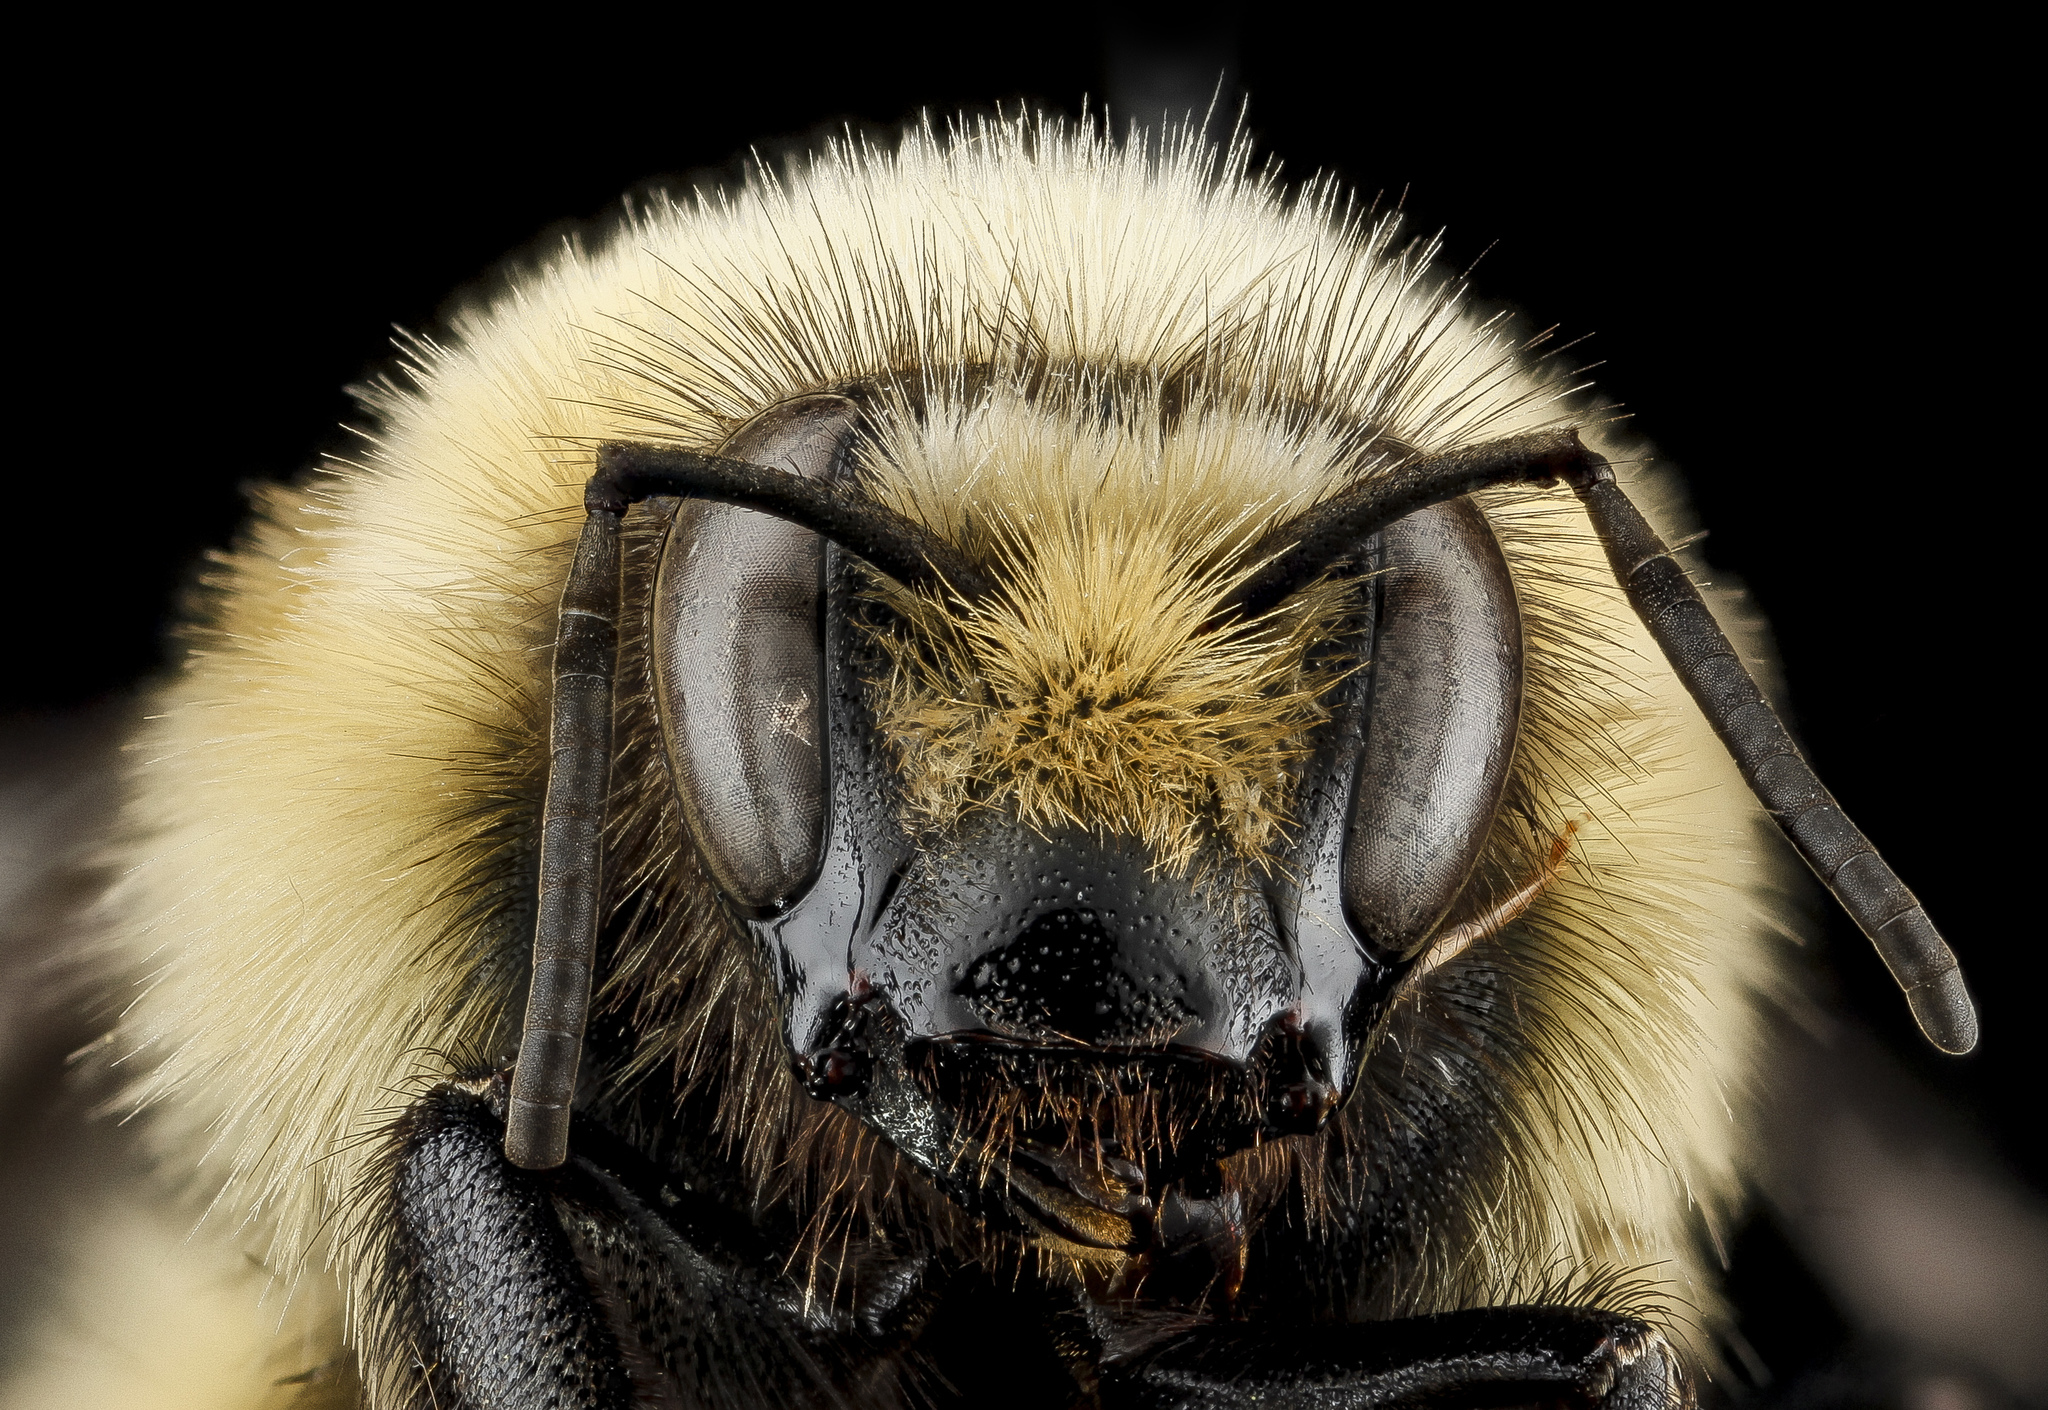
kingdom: Animalia
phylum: Arthropoda
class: Insecta
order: Hymenoptera
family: Apidae
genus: Bombus
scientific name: Bombus huntii
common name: Hunt bumble bee
